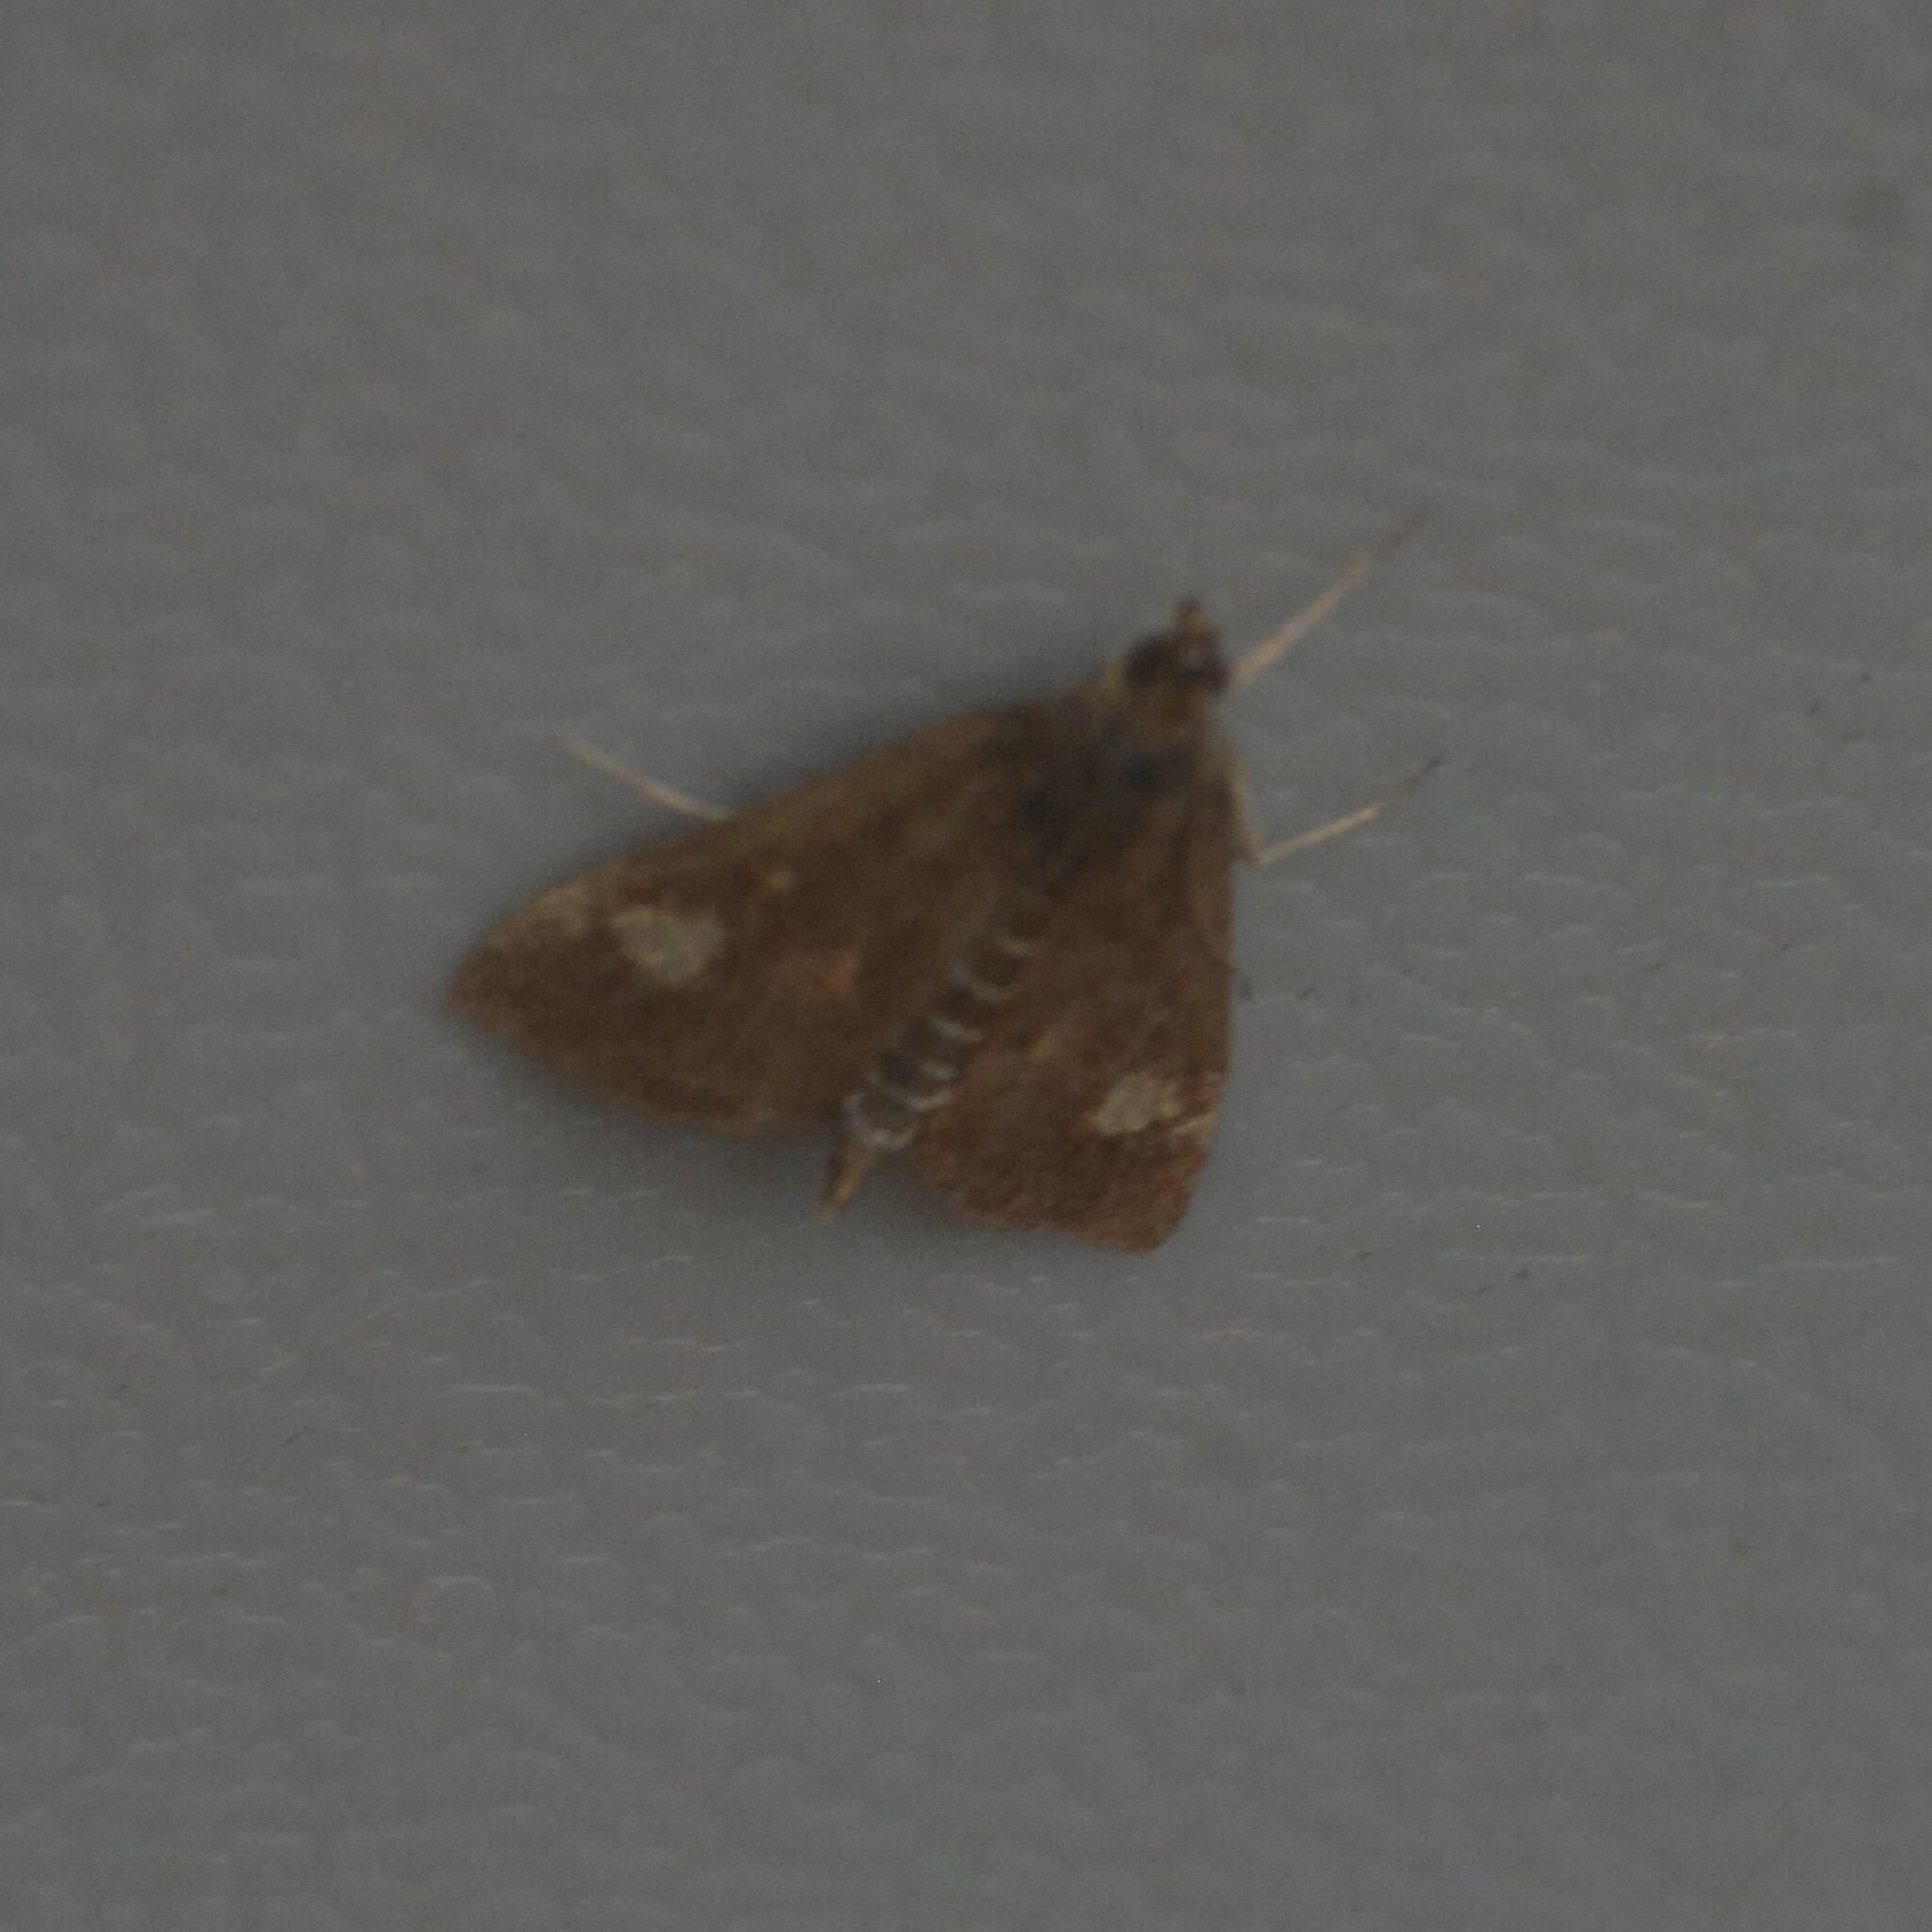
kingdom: Animalia
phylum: Arthropoda
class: Insecta
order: Lepidoptera
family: Crambidae
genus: Pyrausta
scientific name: Pyrausta aurata
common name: Small purple & gold
